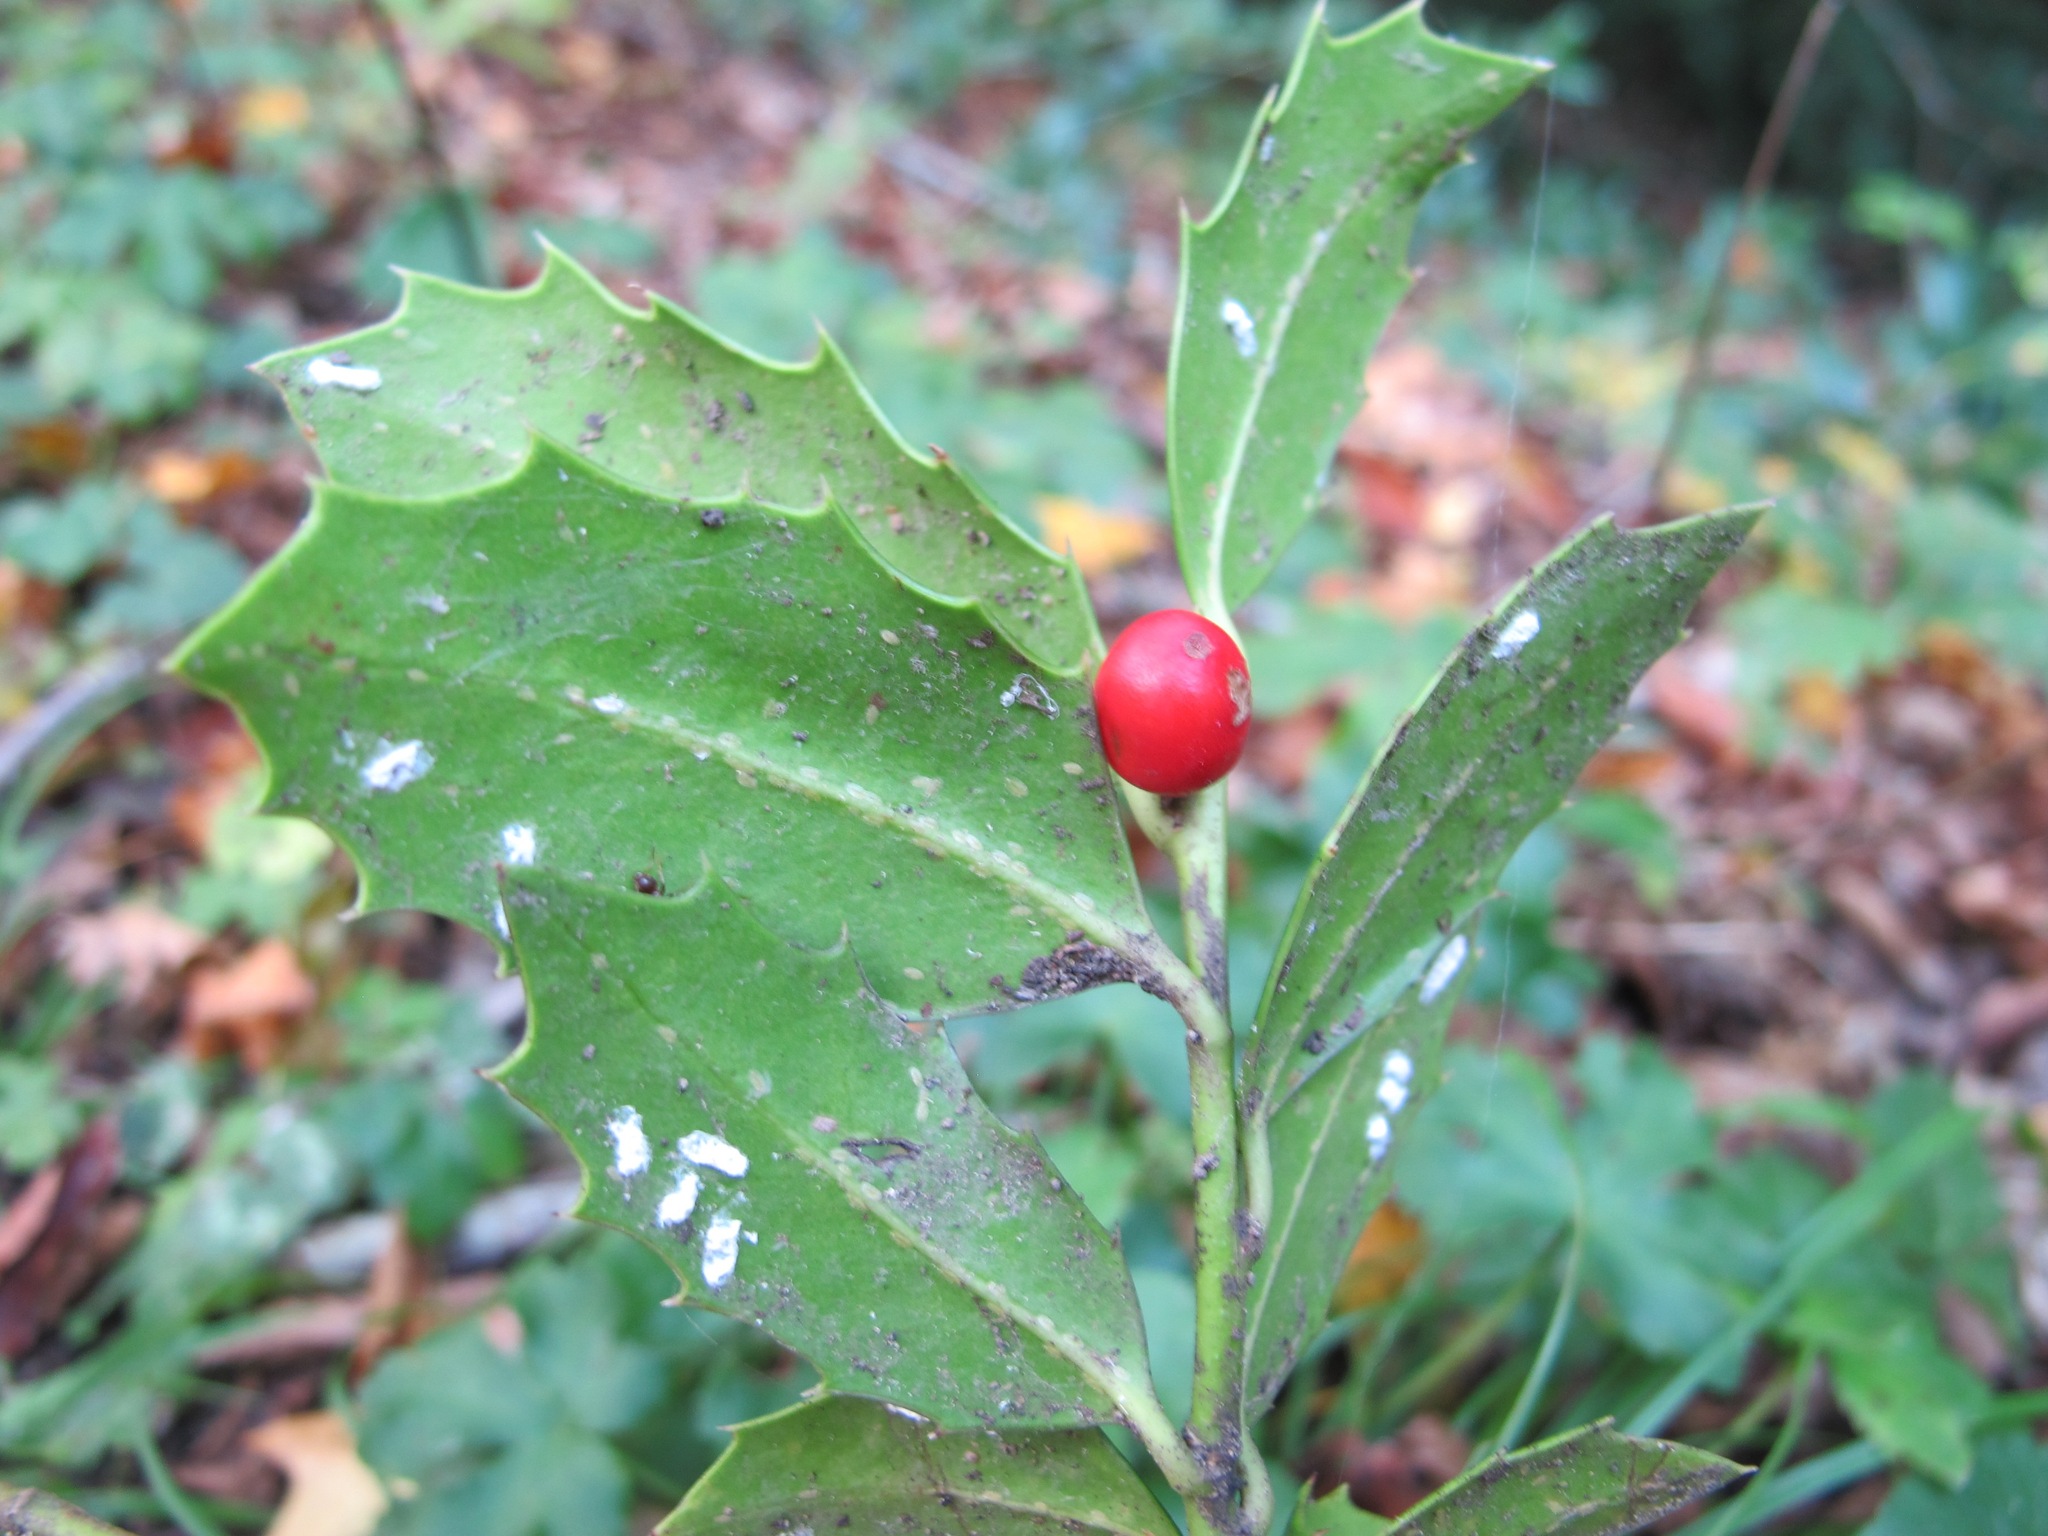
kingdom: Plantae
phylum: Tracheophyta
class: Magnoliopsida
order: Aquifoliales
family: Aquifoliaceae
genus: Ilex
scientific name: Ilex colchica
